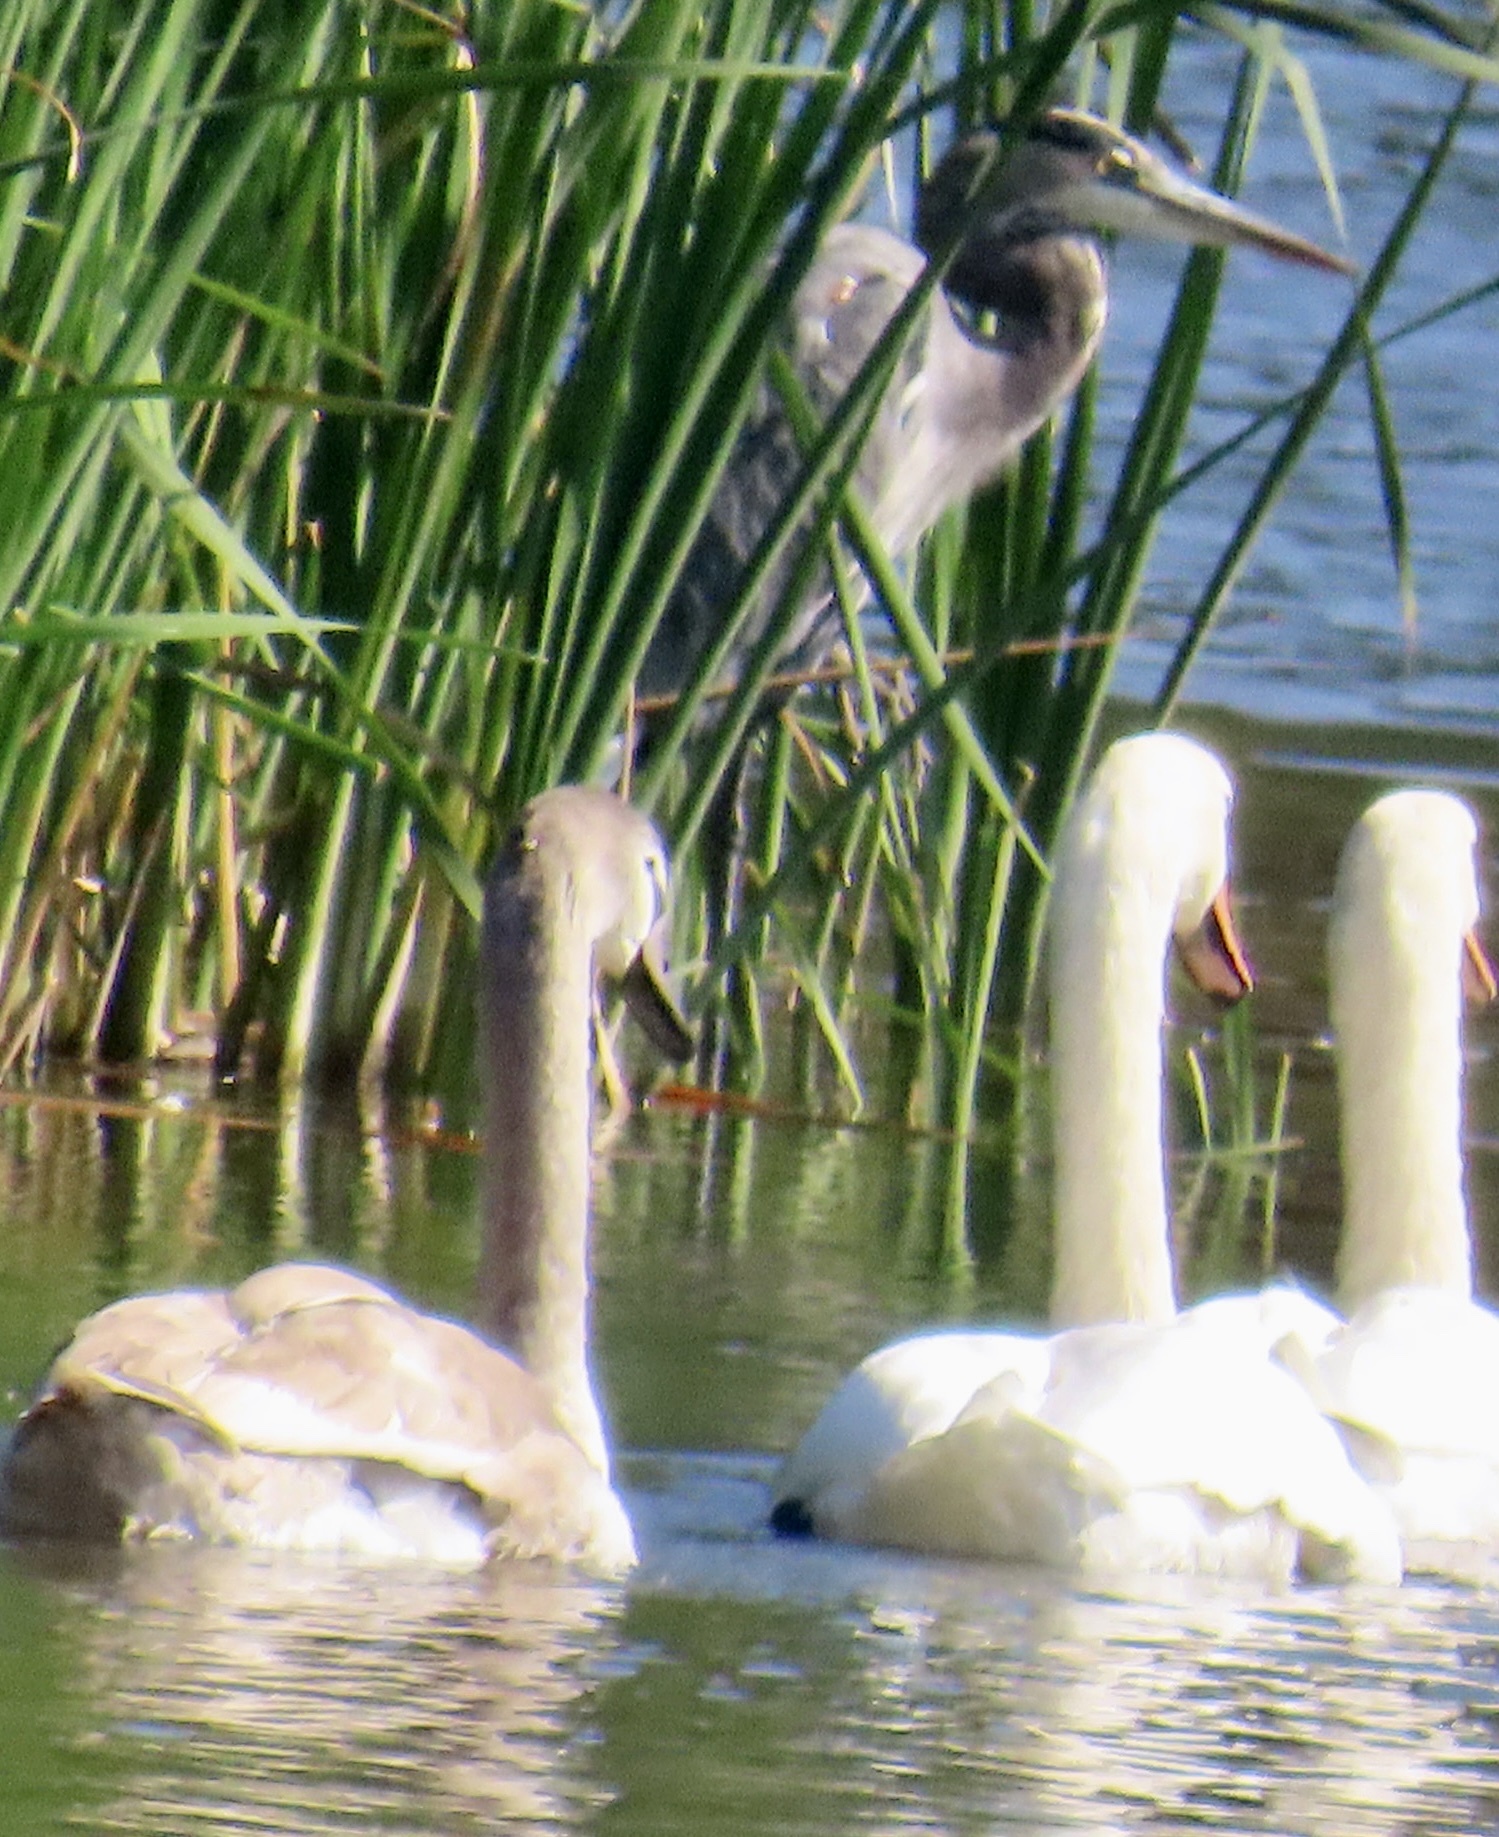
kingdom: Animalia
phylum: Chordata
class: Aves
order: Pelecaniformes
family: Ardeidae
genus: Ardea
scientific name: Ardea herodias
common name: Great blue heron
